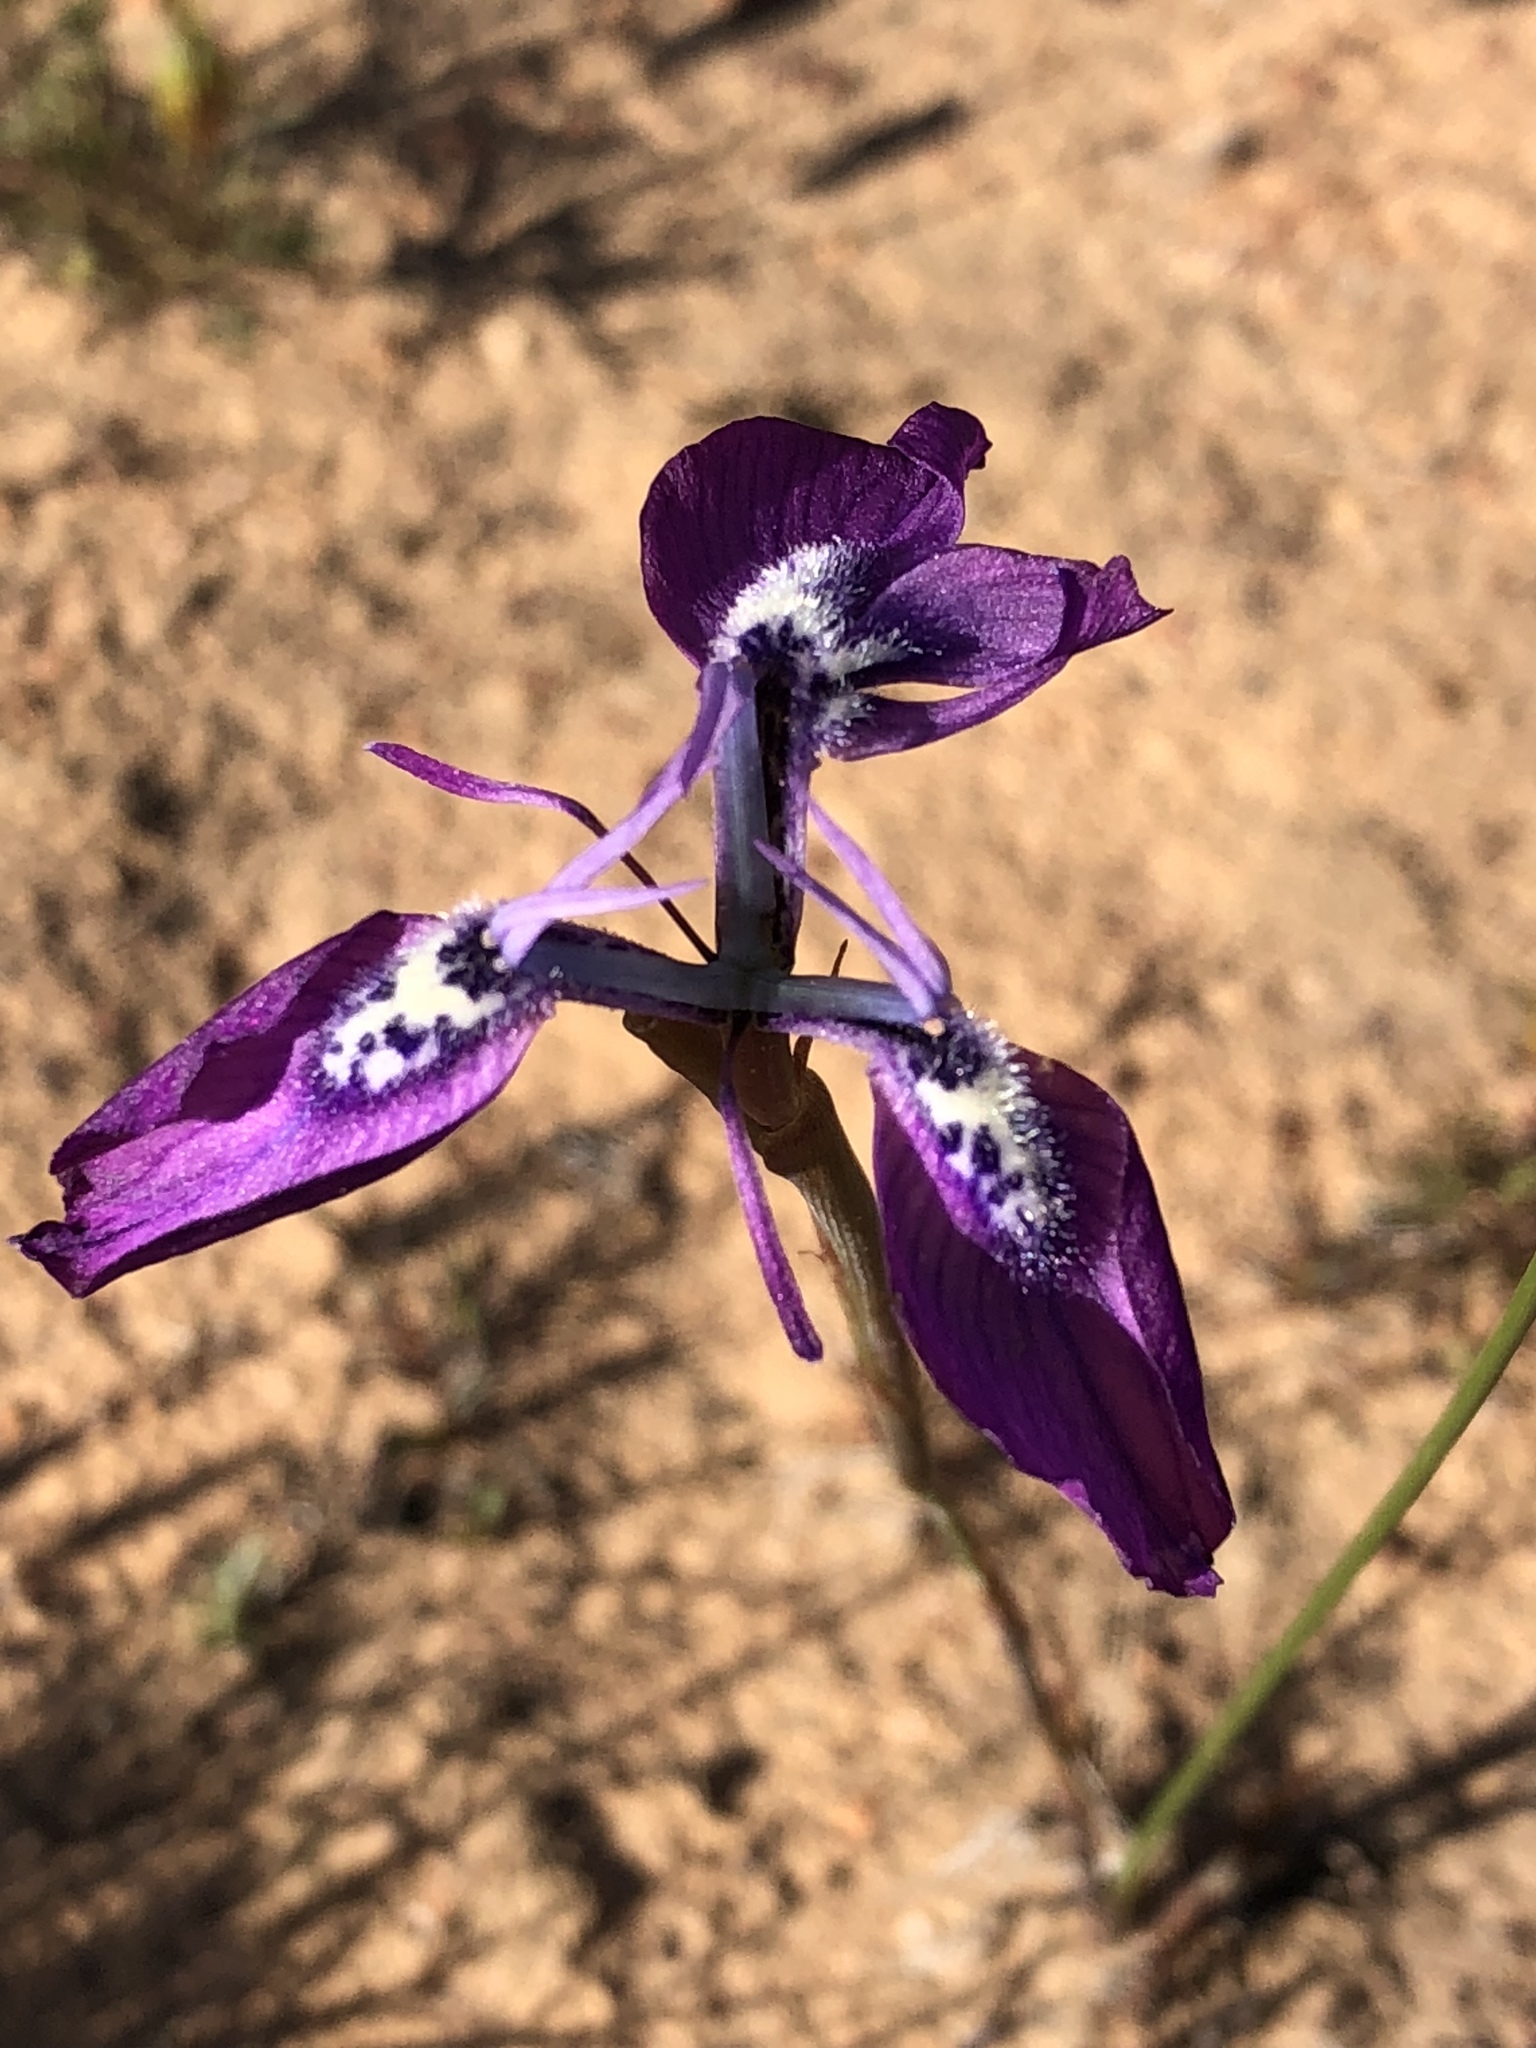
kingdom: Plantae
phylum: Tracheophyta
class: Liliopsida
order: Asparagales
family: Iridaceae
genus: Moraea
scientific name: Moraea cuspidata
